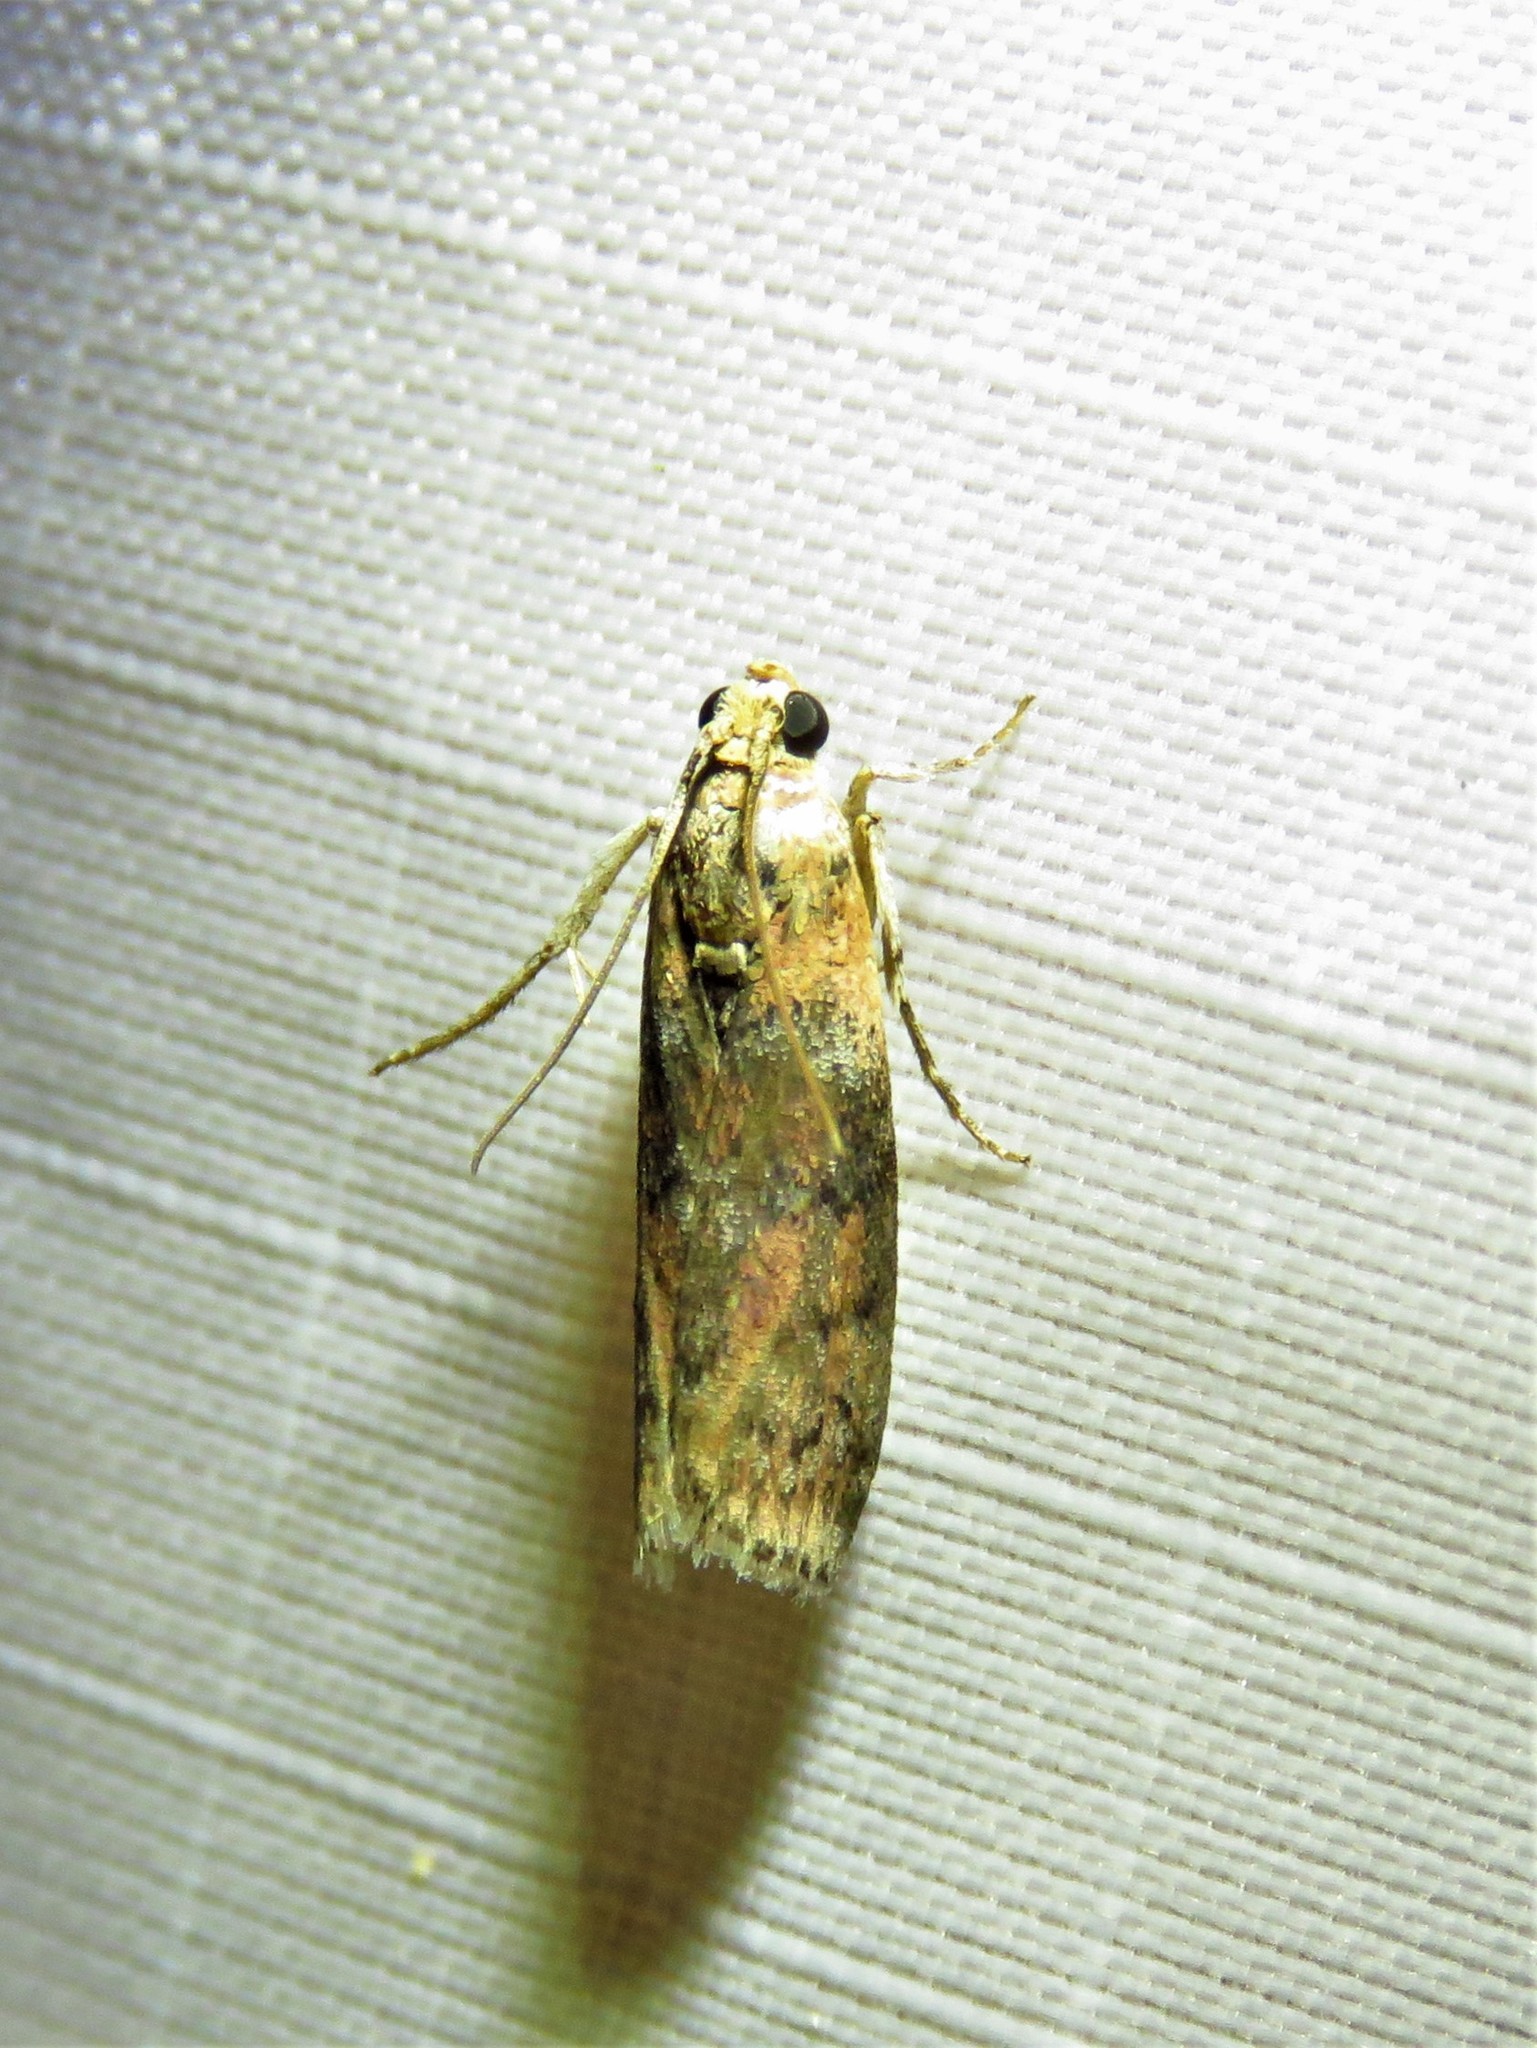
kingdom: Animalia
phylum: Arthropoda
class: Insecta
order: Lepidoptera
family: Pyralidae
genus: Sciota
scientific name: Sciota celtidella
